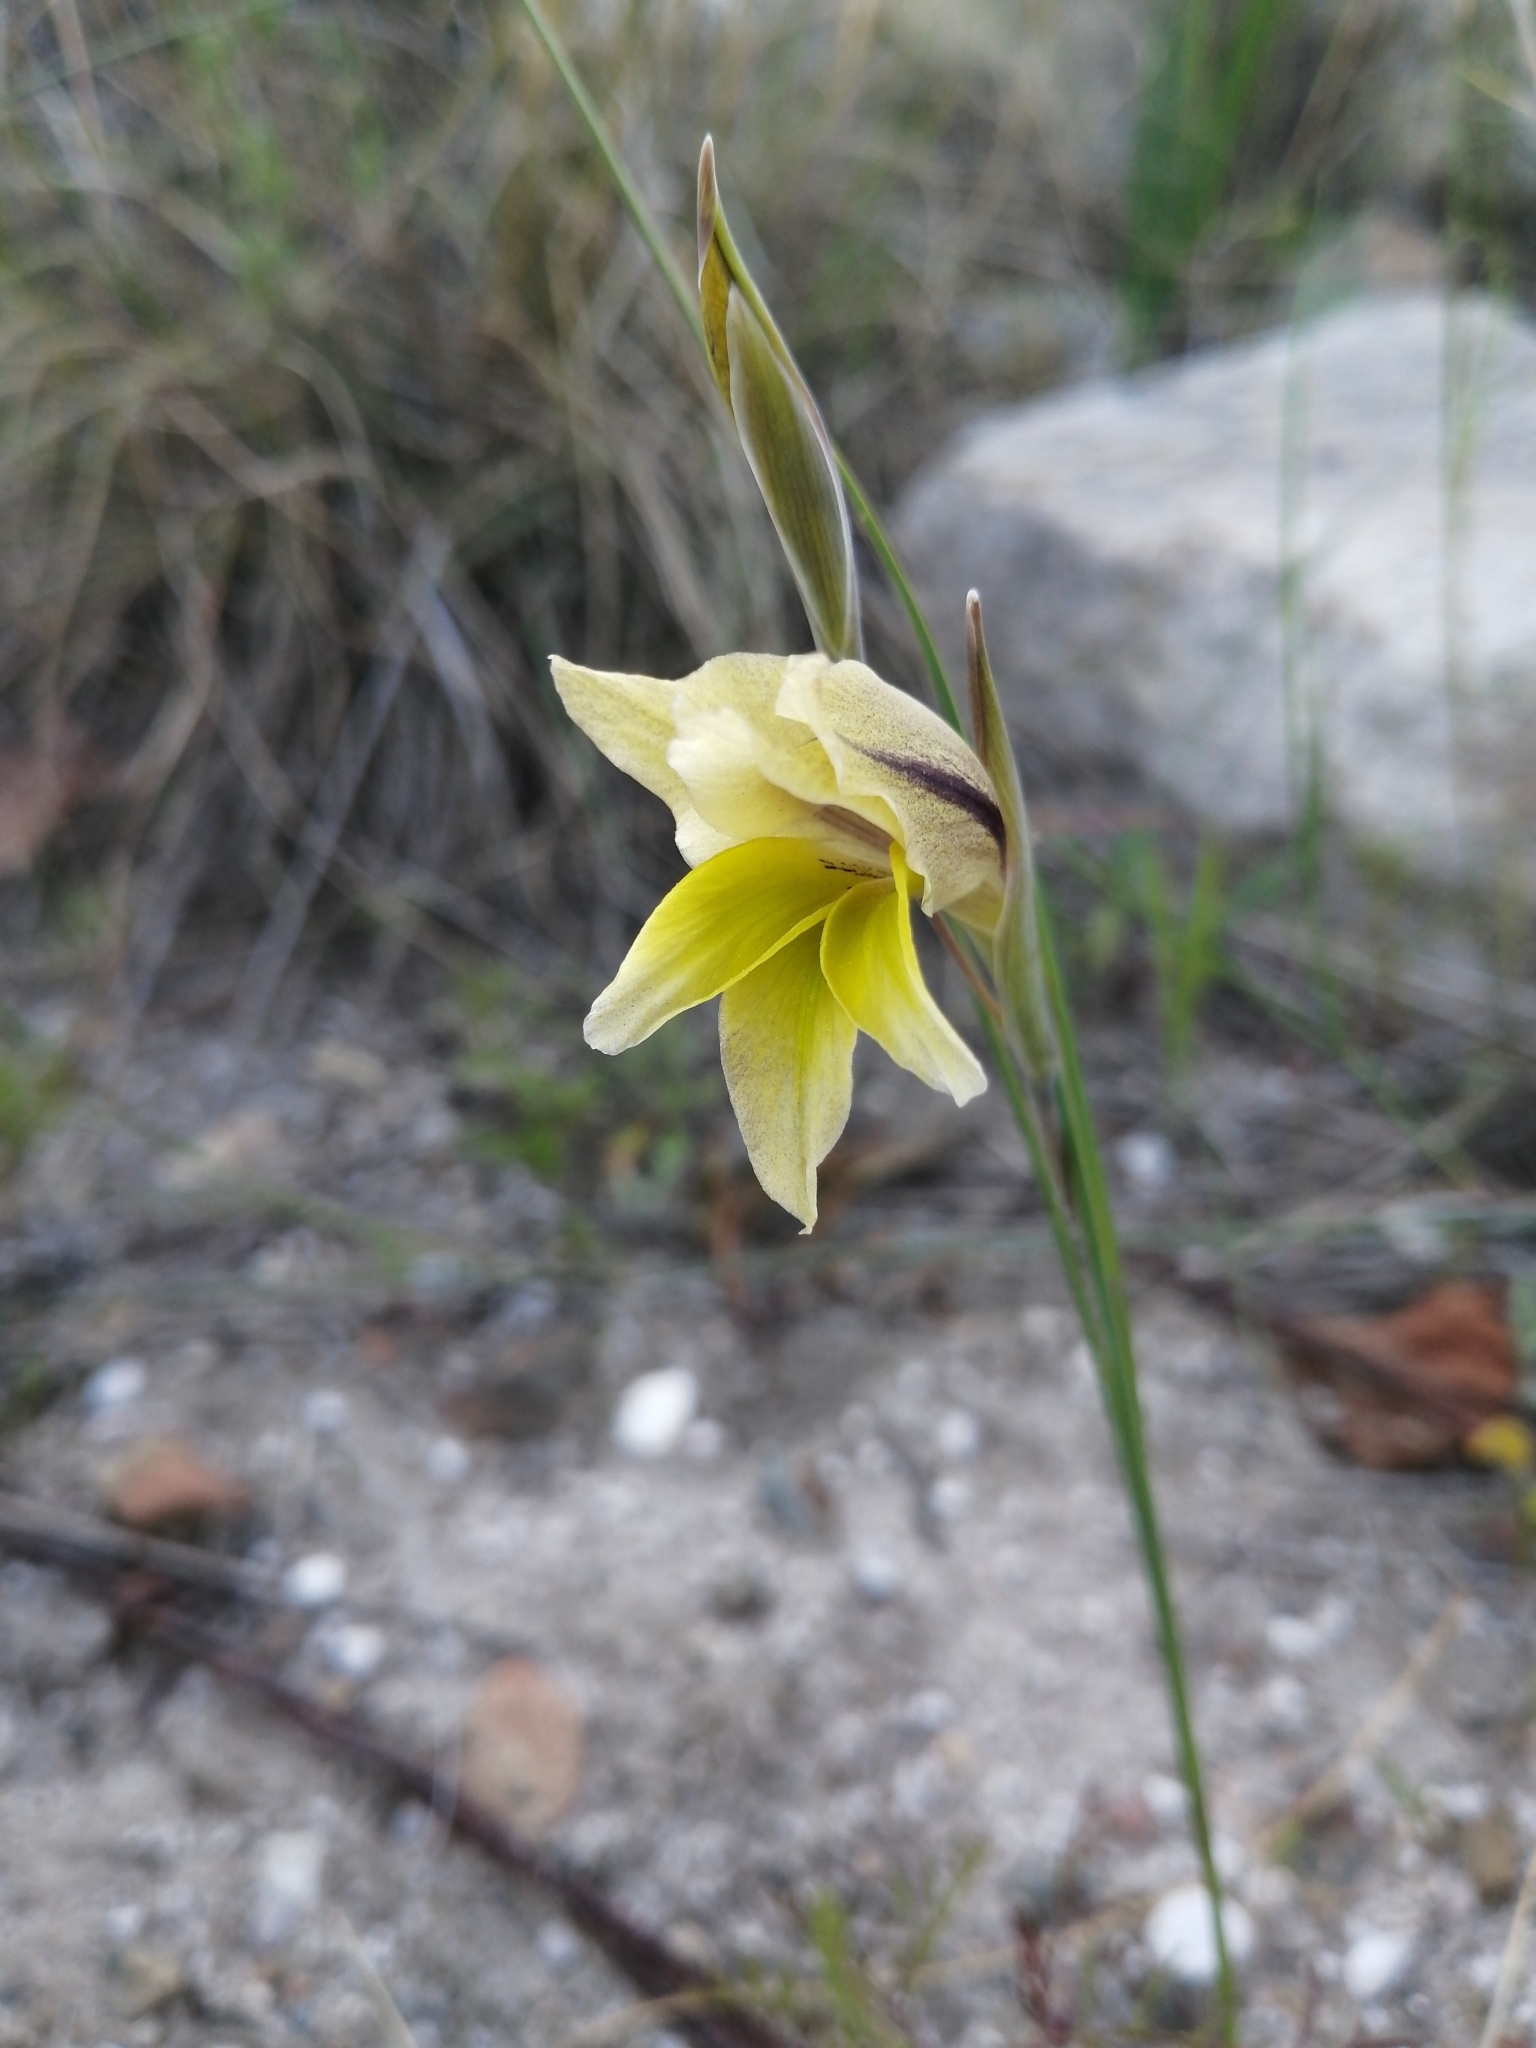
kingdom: Plantae
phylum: Tracheophyta
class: Liliopsida
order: Asparagales
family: Iridaceae
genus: Gladiolus
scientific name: Gladiolus carinatus
